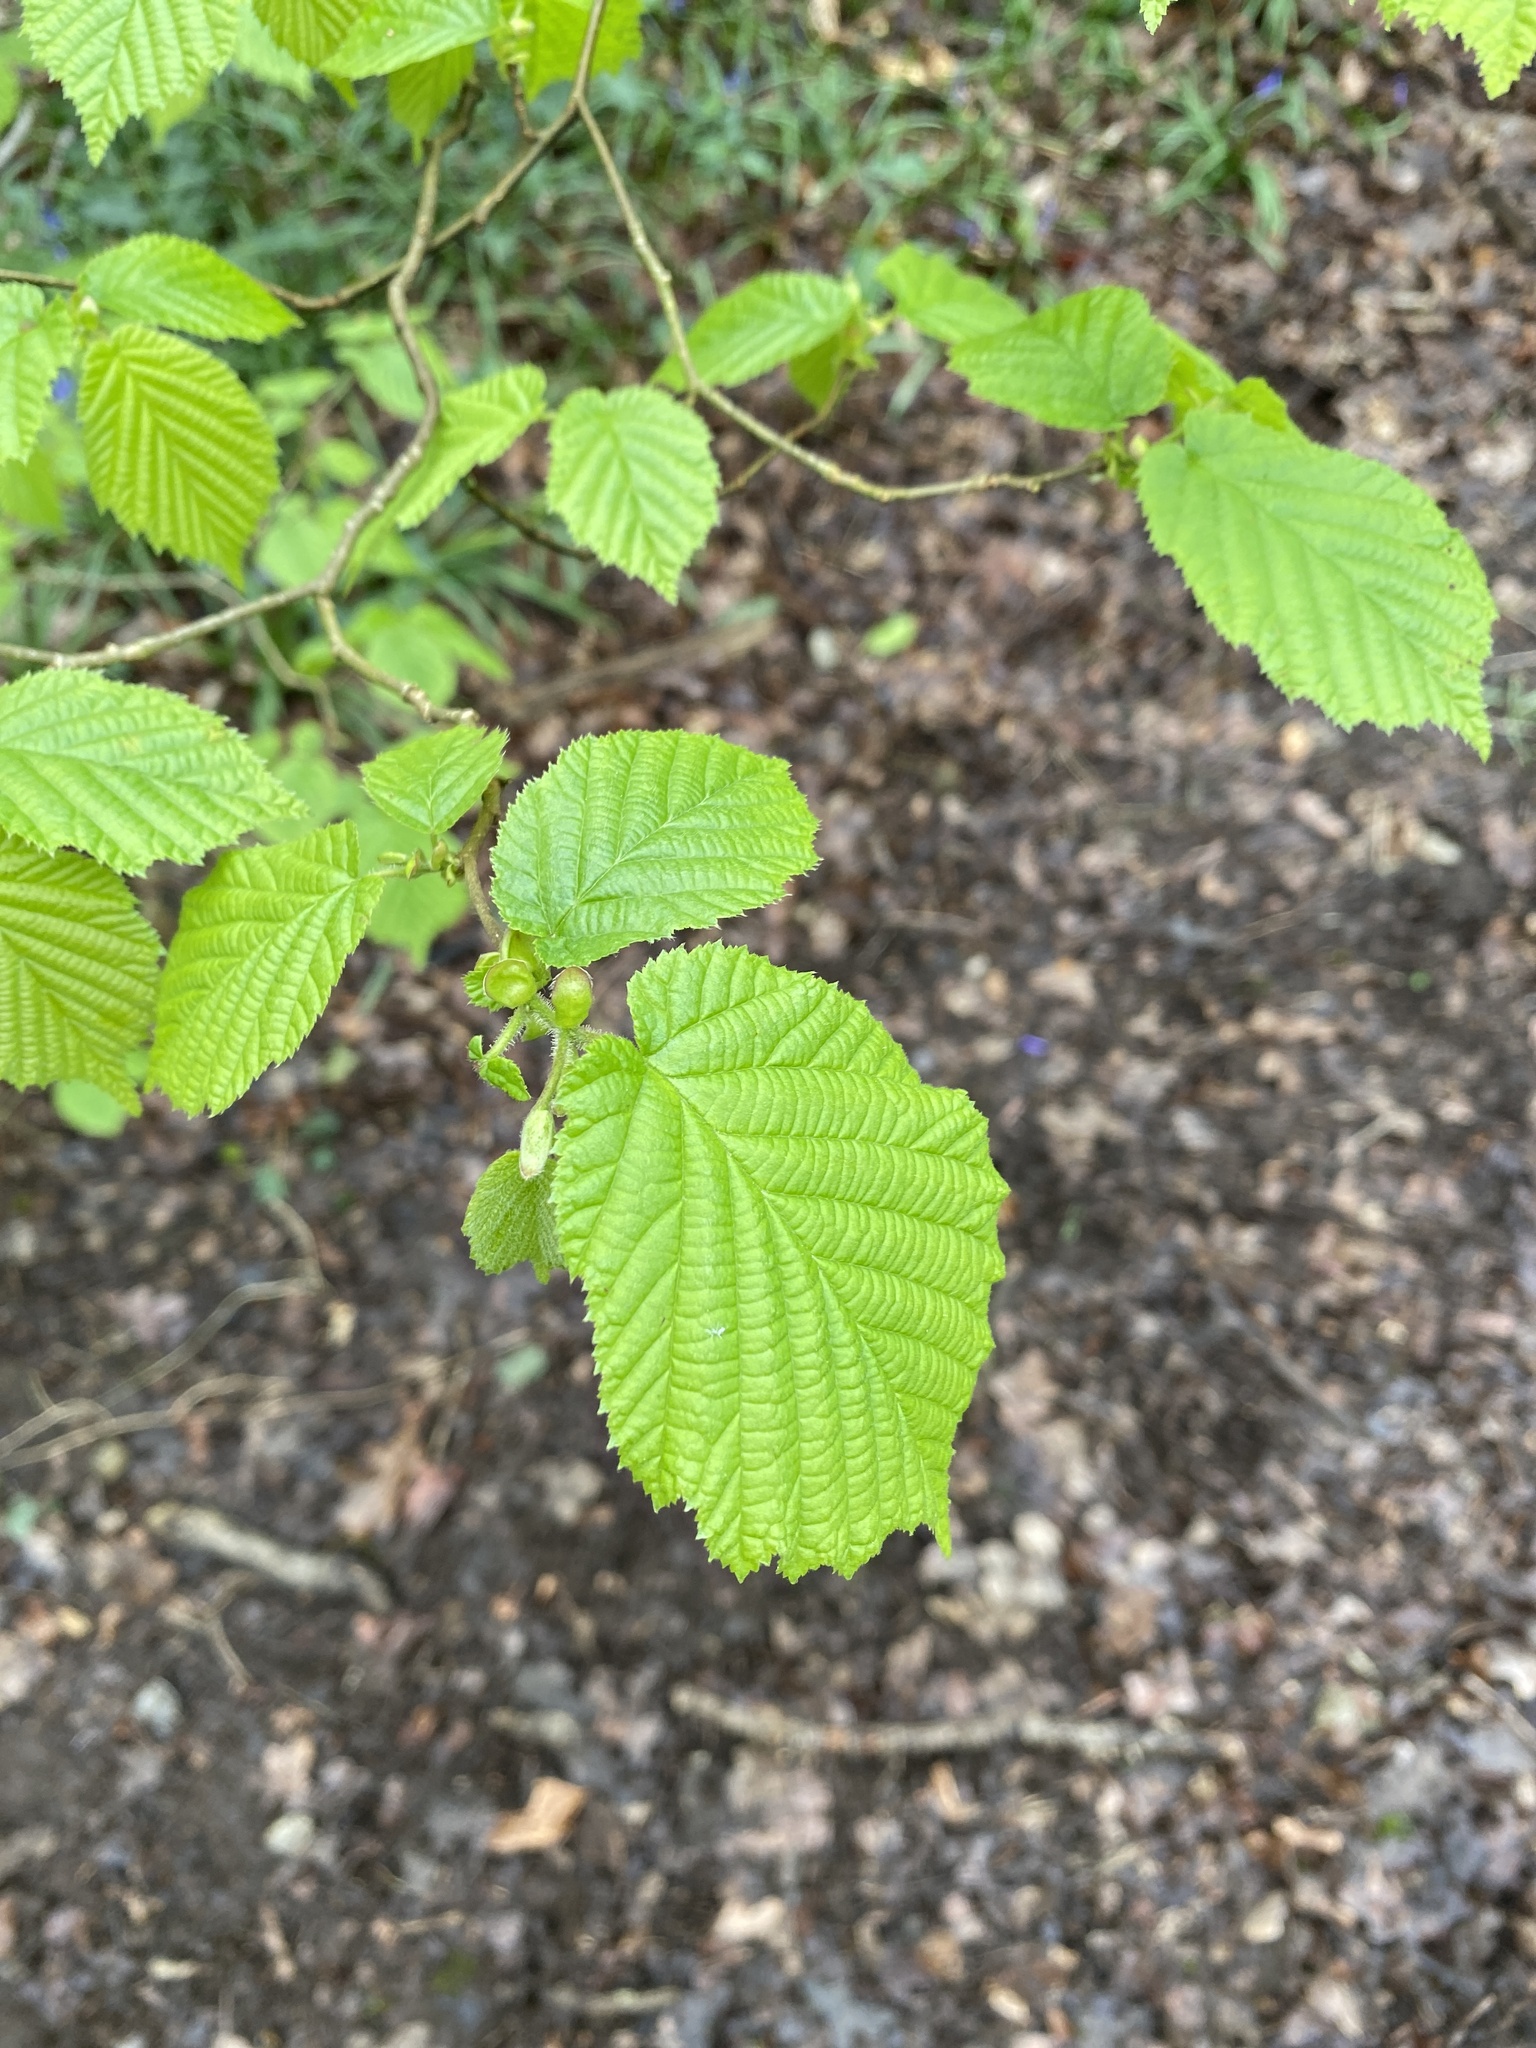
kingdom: Plantae
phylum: Tracheophyta
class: Magnoliopsida
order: Fagales
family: Betulaceae
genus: Corylus
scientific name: Corylus avellana
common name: European hazel
